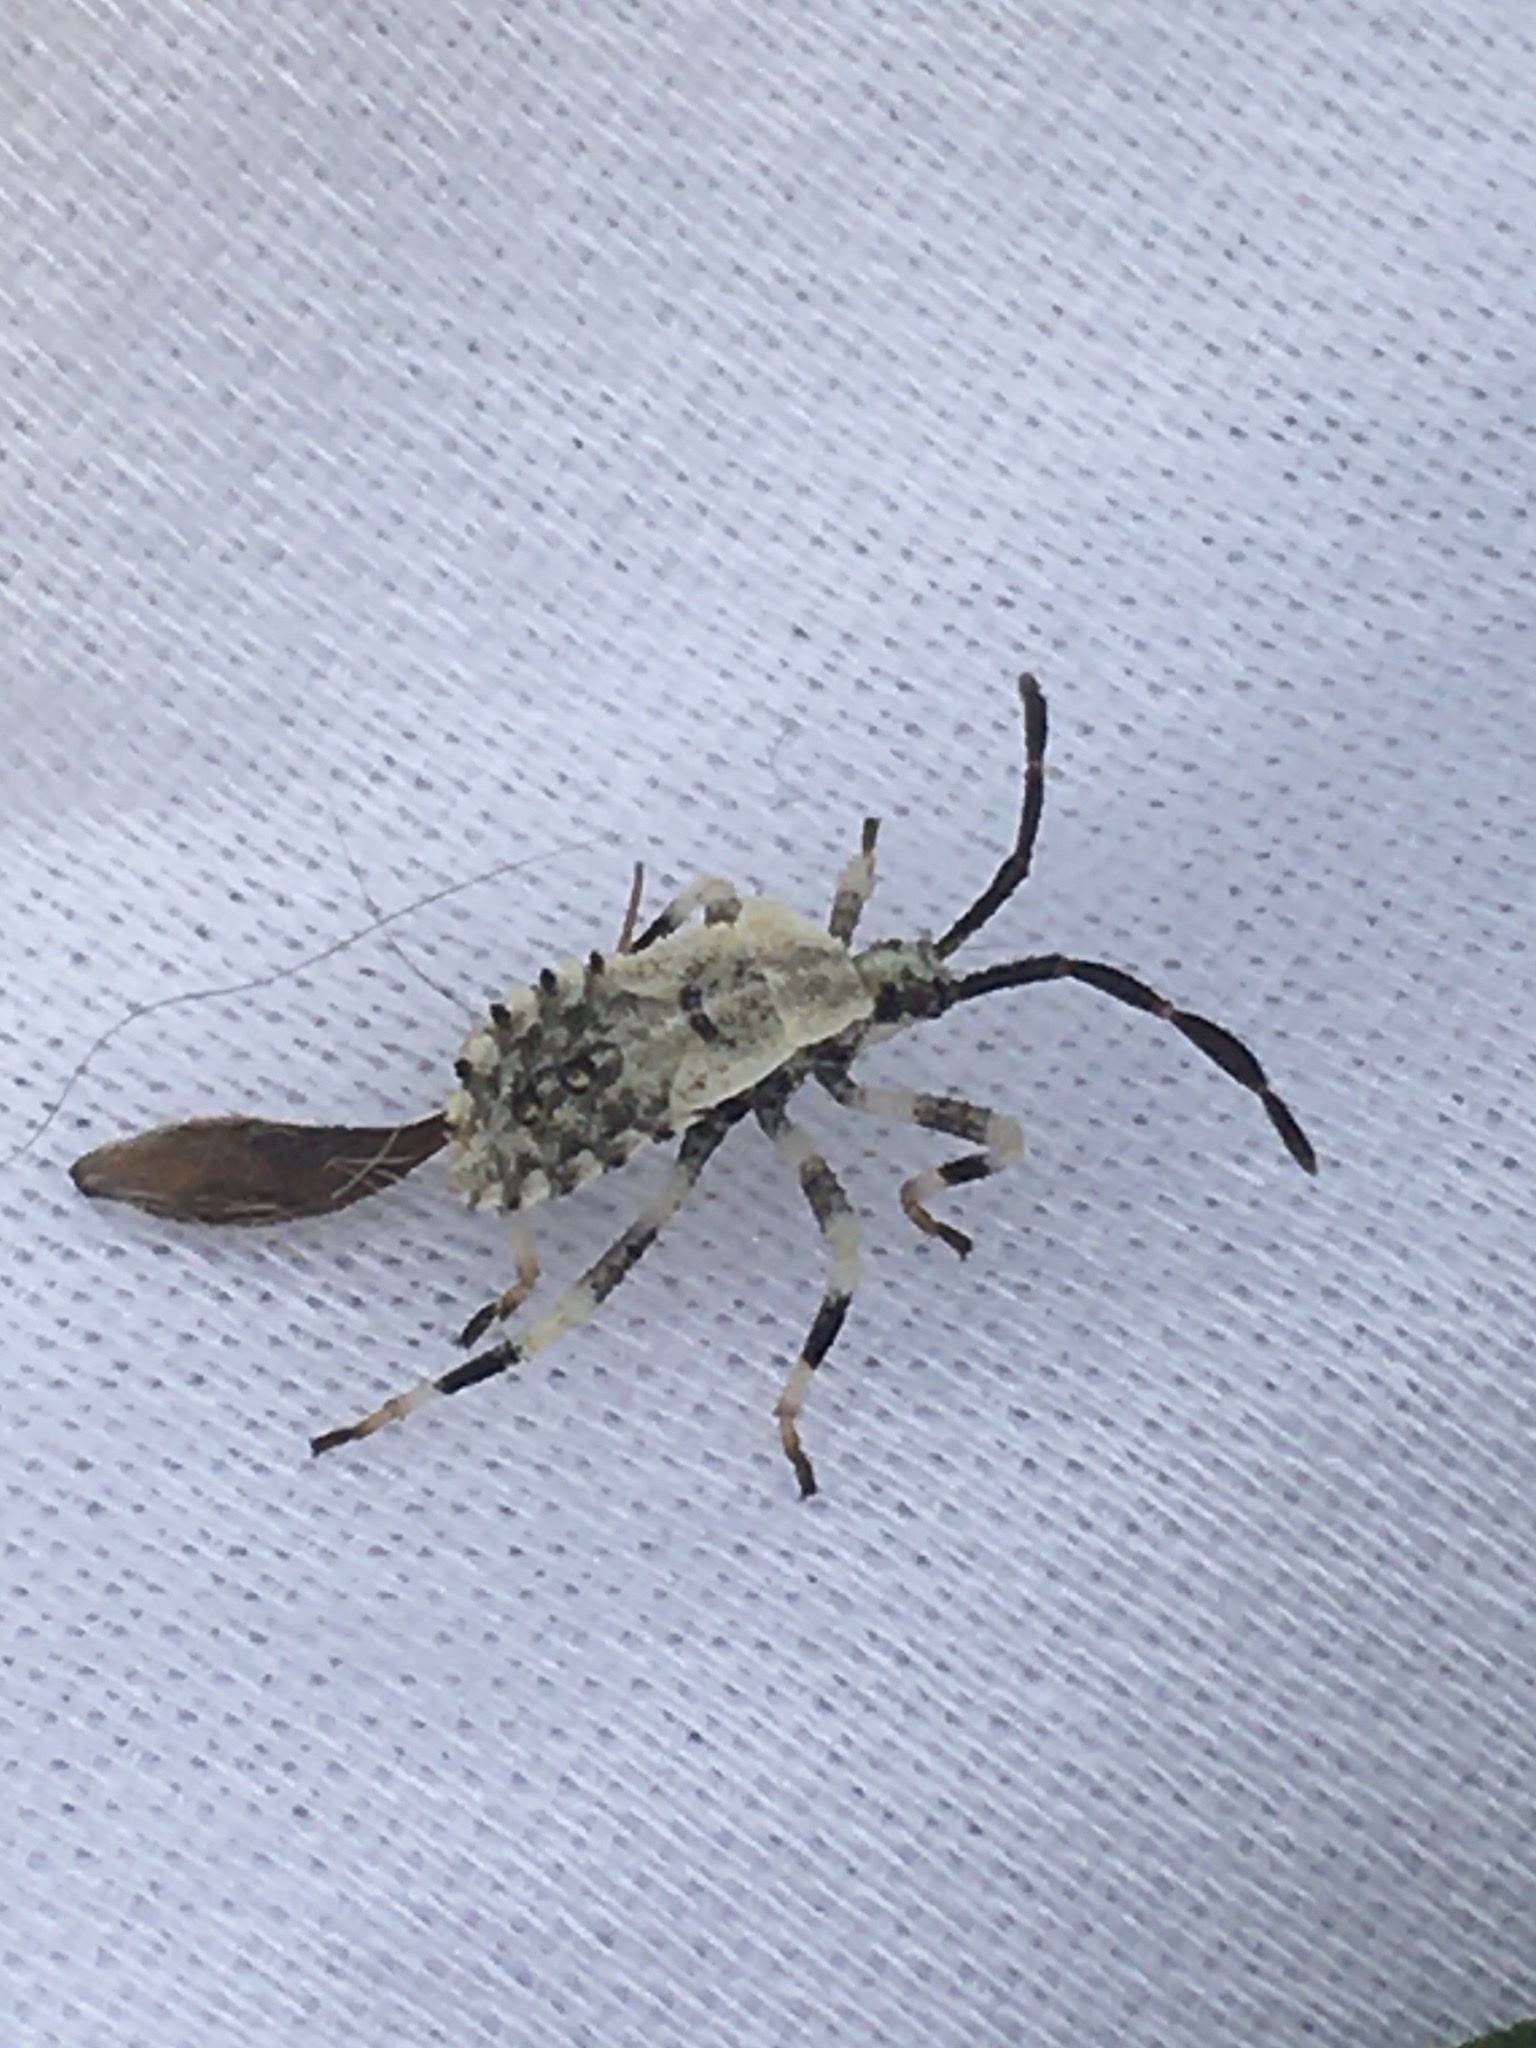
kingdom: Animalia
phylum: Arthropoda
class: Insecta
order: Hemiptera
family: Coreidae
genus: Anasa
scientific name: Anasa armigera
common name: Horned squash bug
